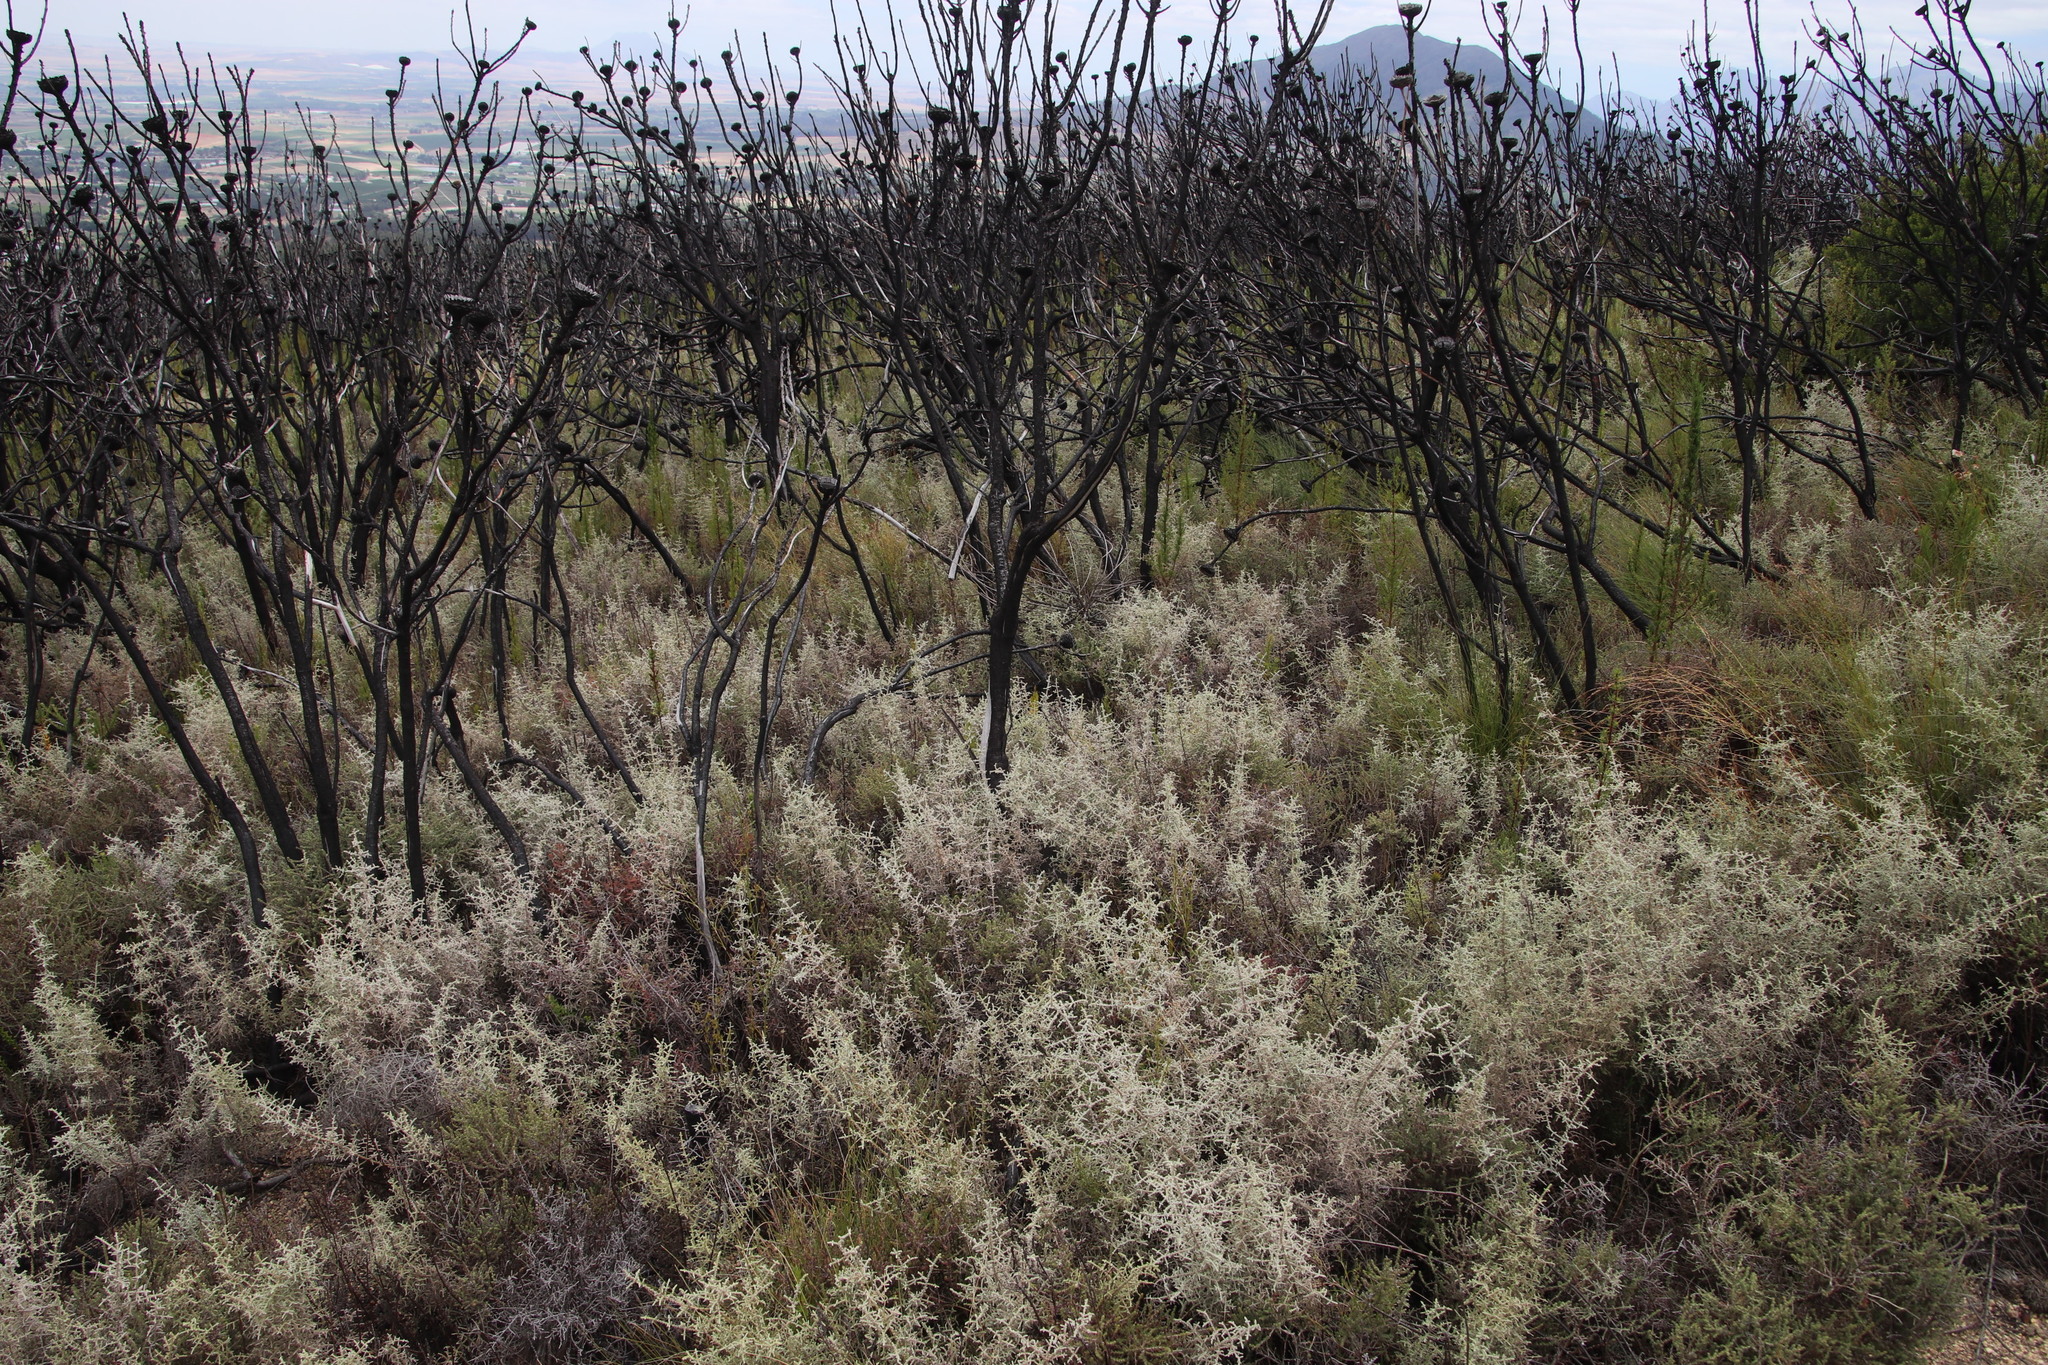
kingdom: Plantae
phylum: Tracheophyta
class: Magnoliopsida
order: Asterales
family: Asteraceae
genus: Seriphium
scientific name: Seriphium plumosum
